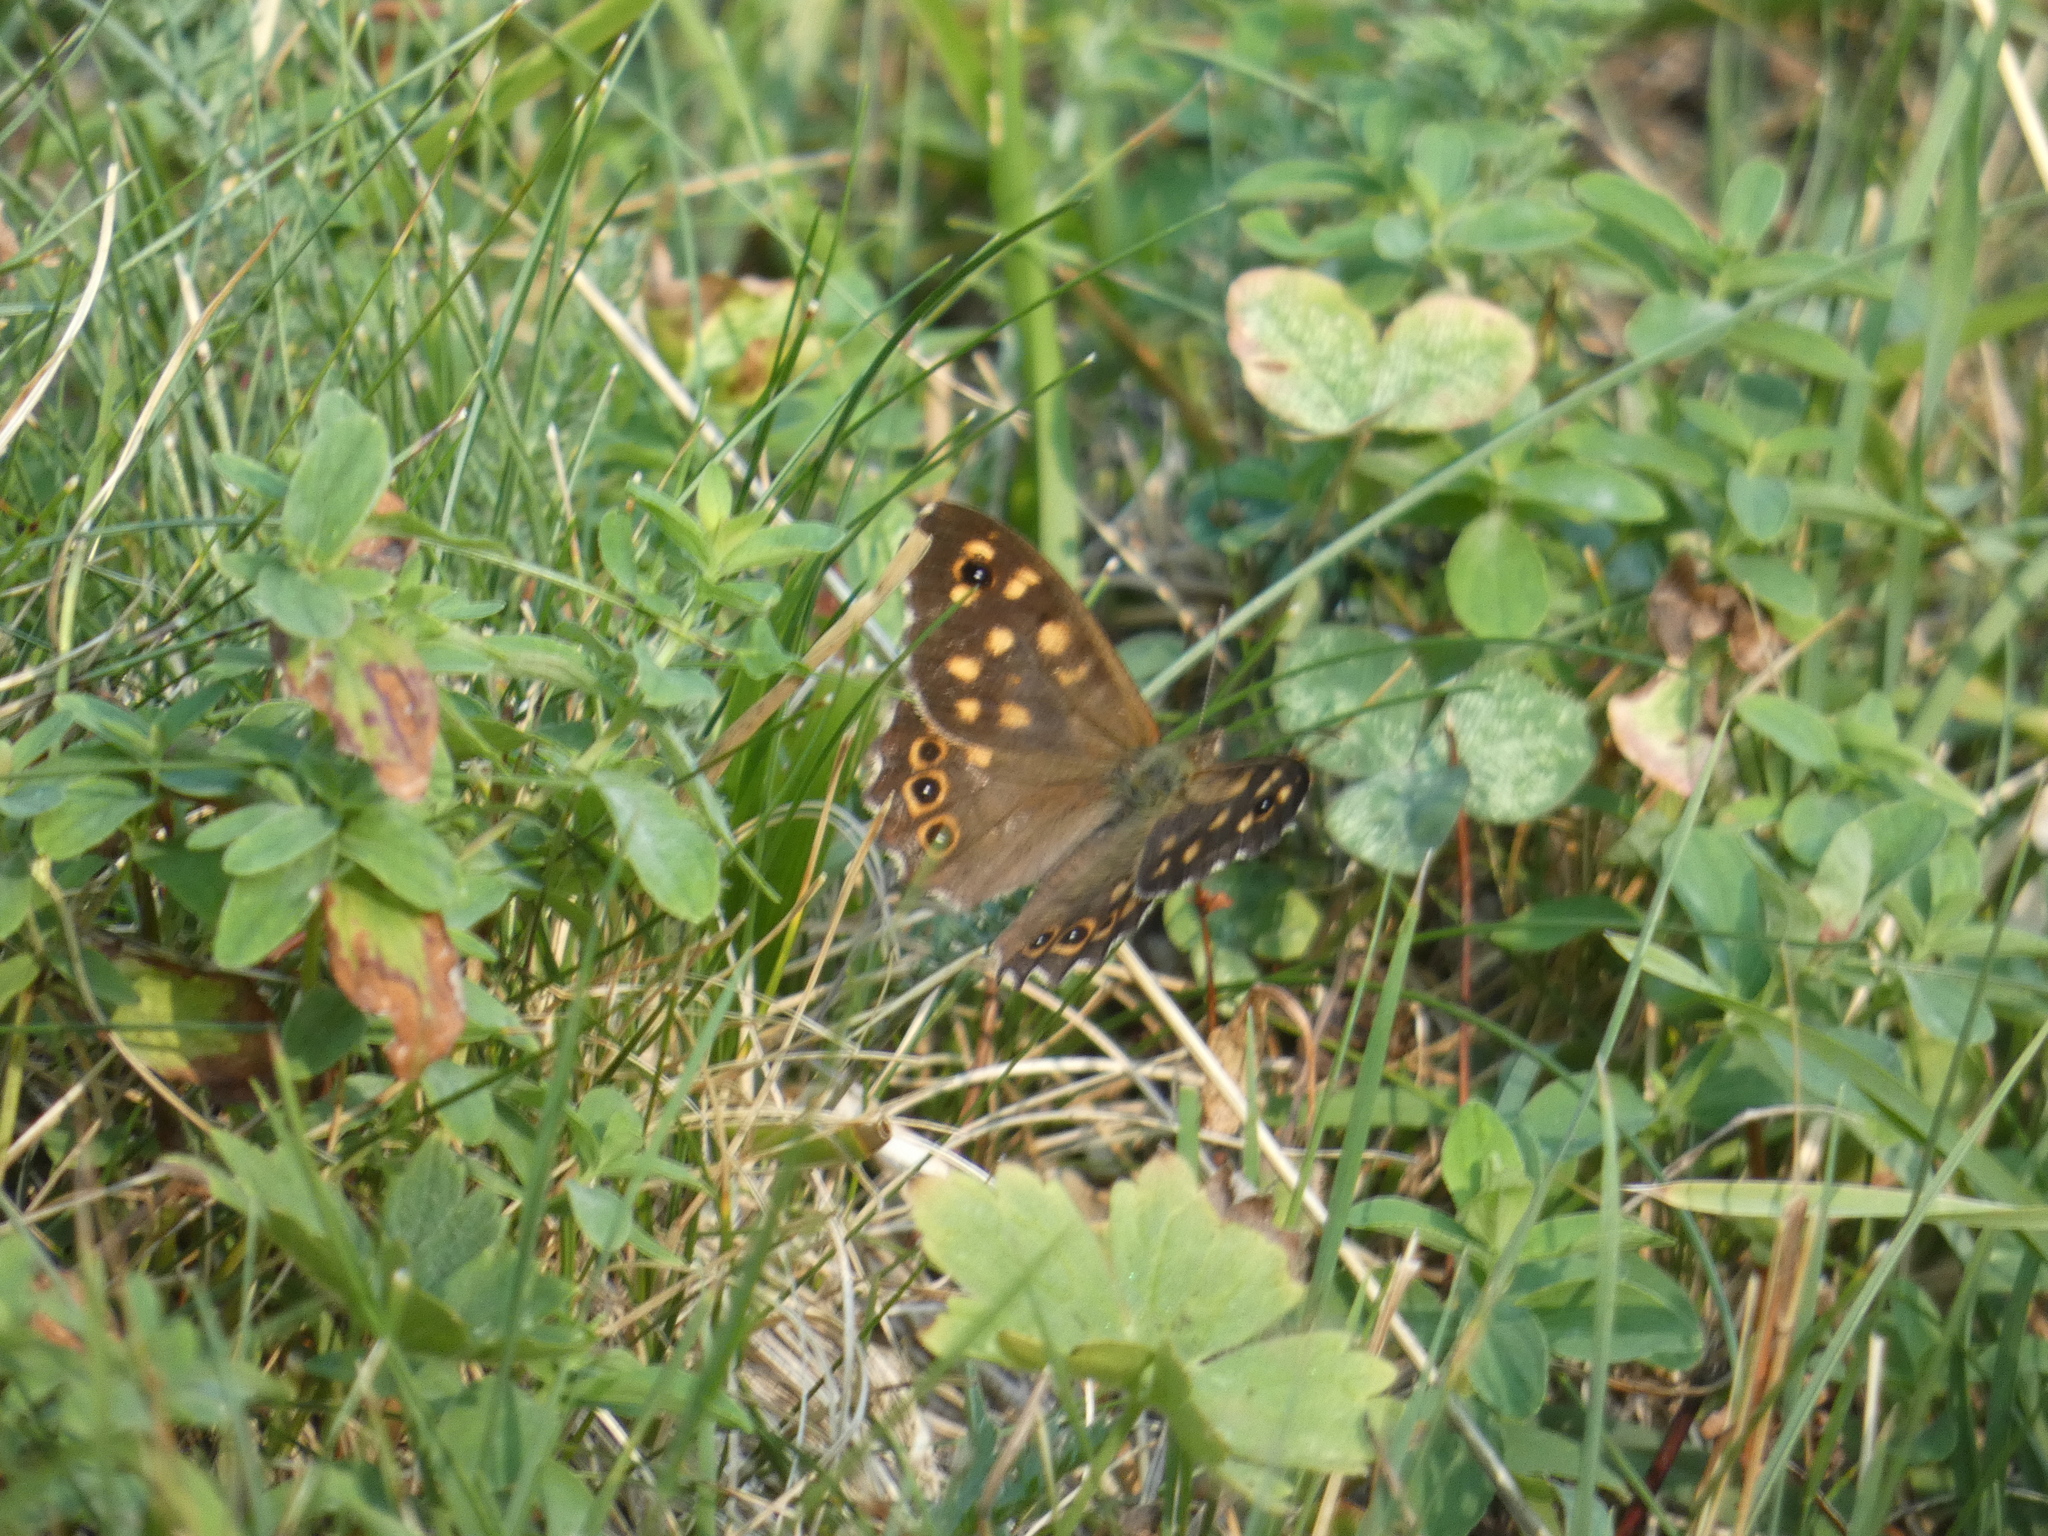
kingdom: Animalia
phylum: Arthropoda
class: Insecta
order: Lepidoptera
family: Nymphalidae
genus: Pararge
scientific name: Pararge aegeria
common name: Speckled wood
